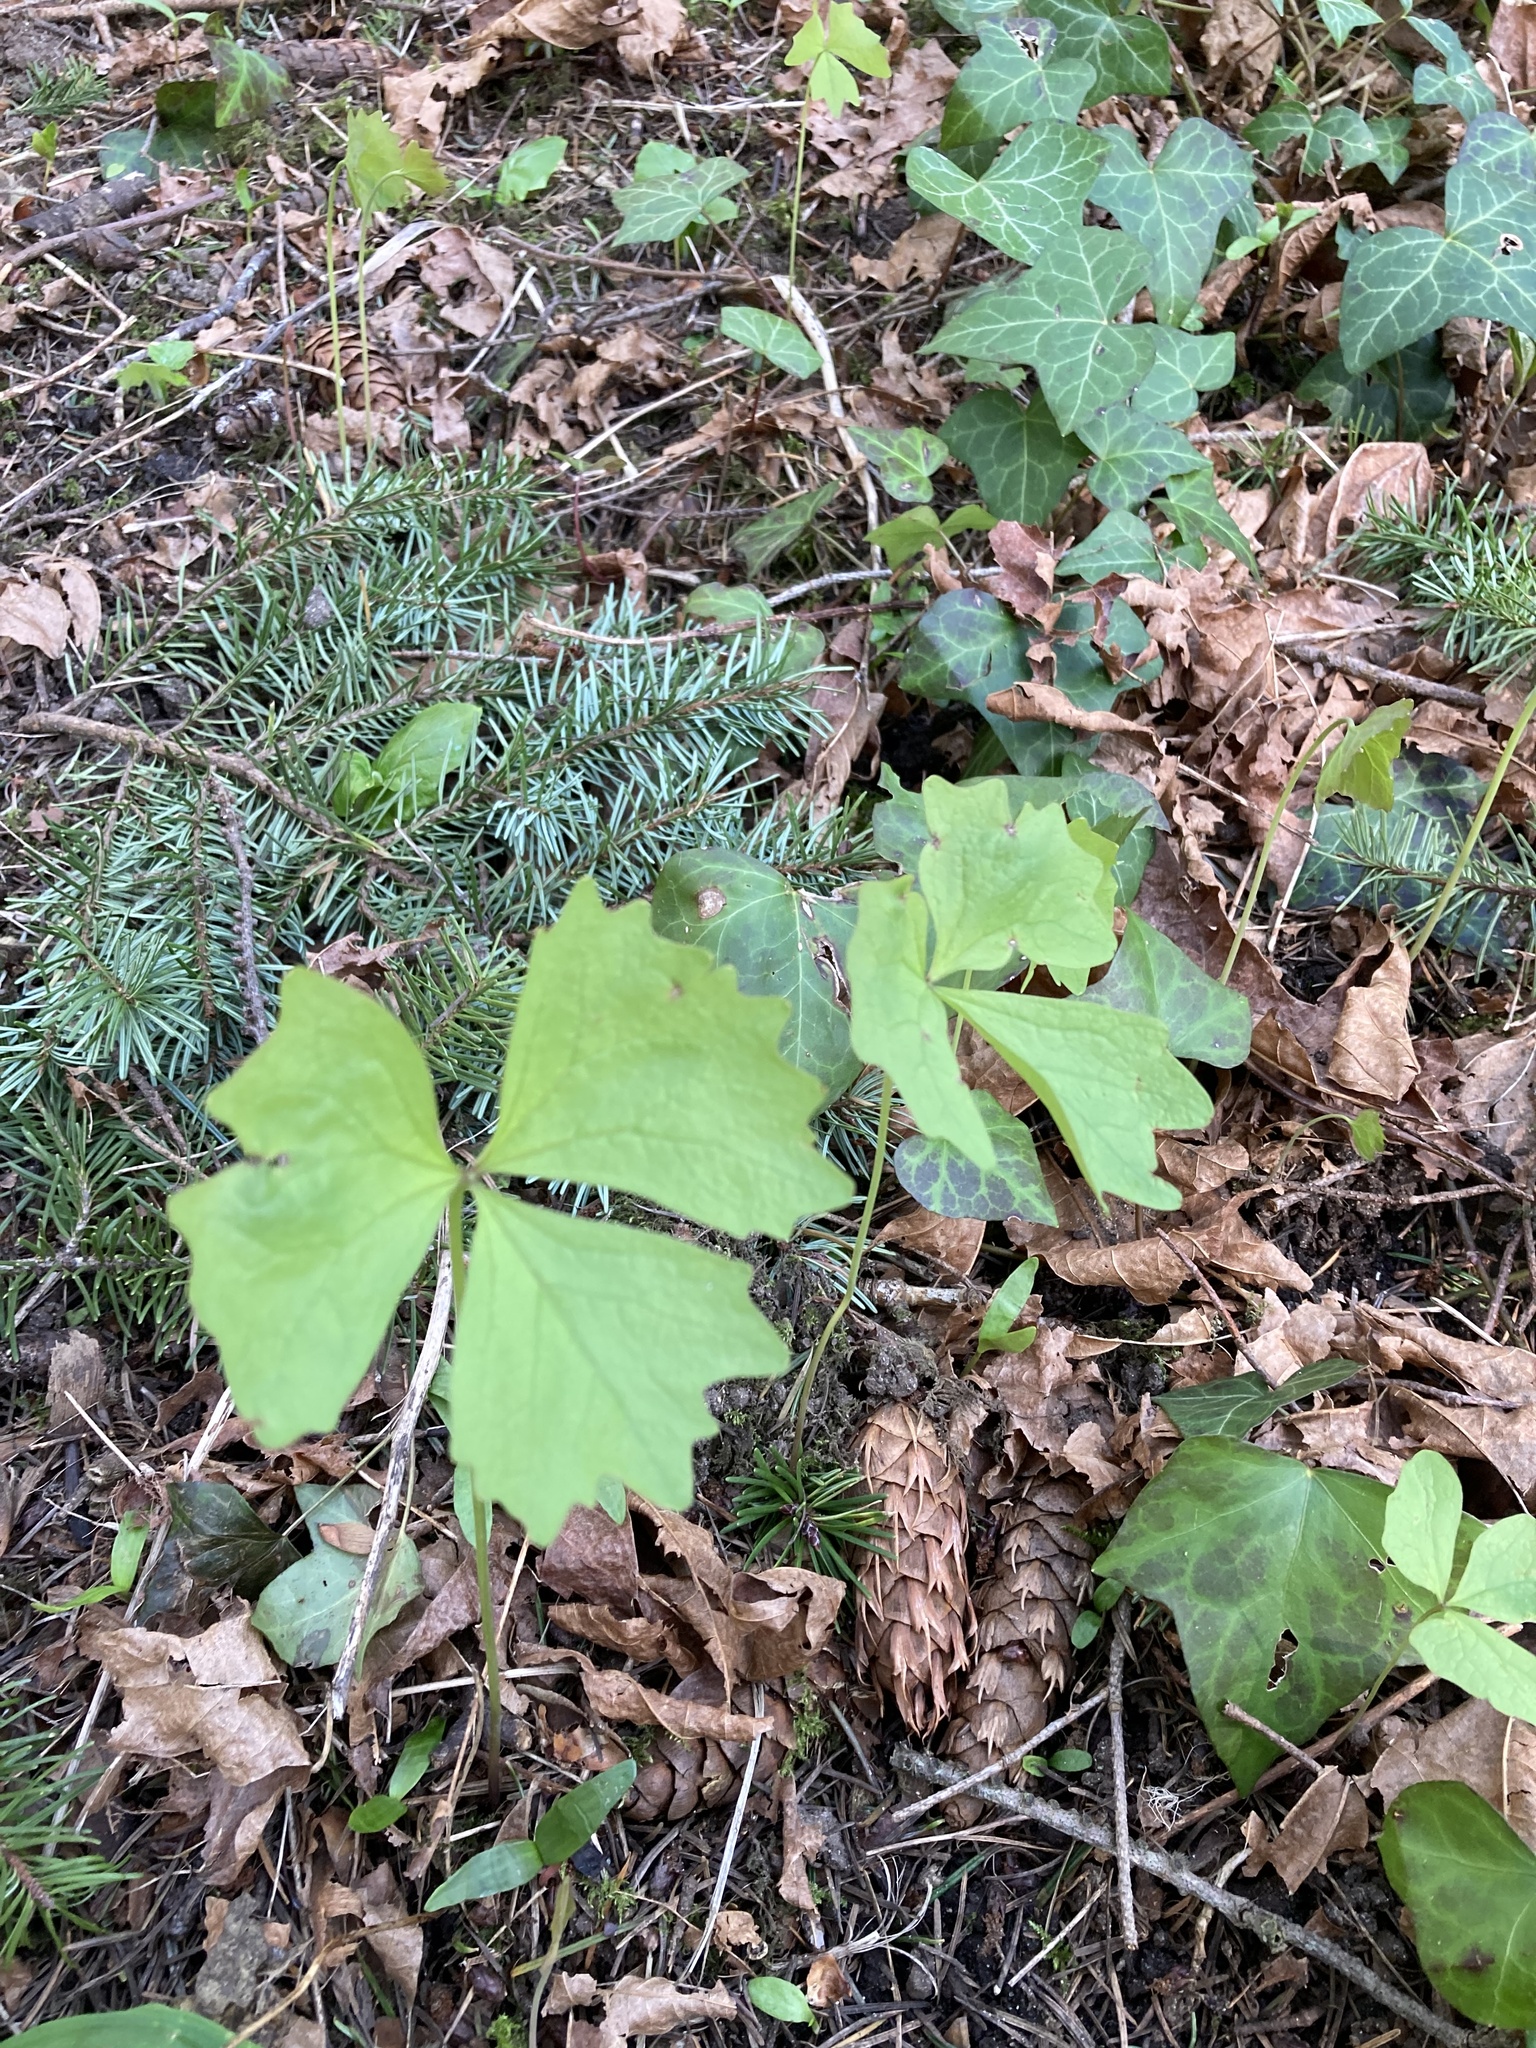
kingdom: Plantae
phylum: Tracheophyta
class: Magnoliopsida
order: Ranunculales
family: Berberidaceae
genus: Achlys
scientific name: Achlys triphylla
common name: Vanilla-leaf
